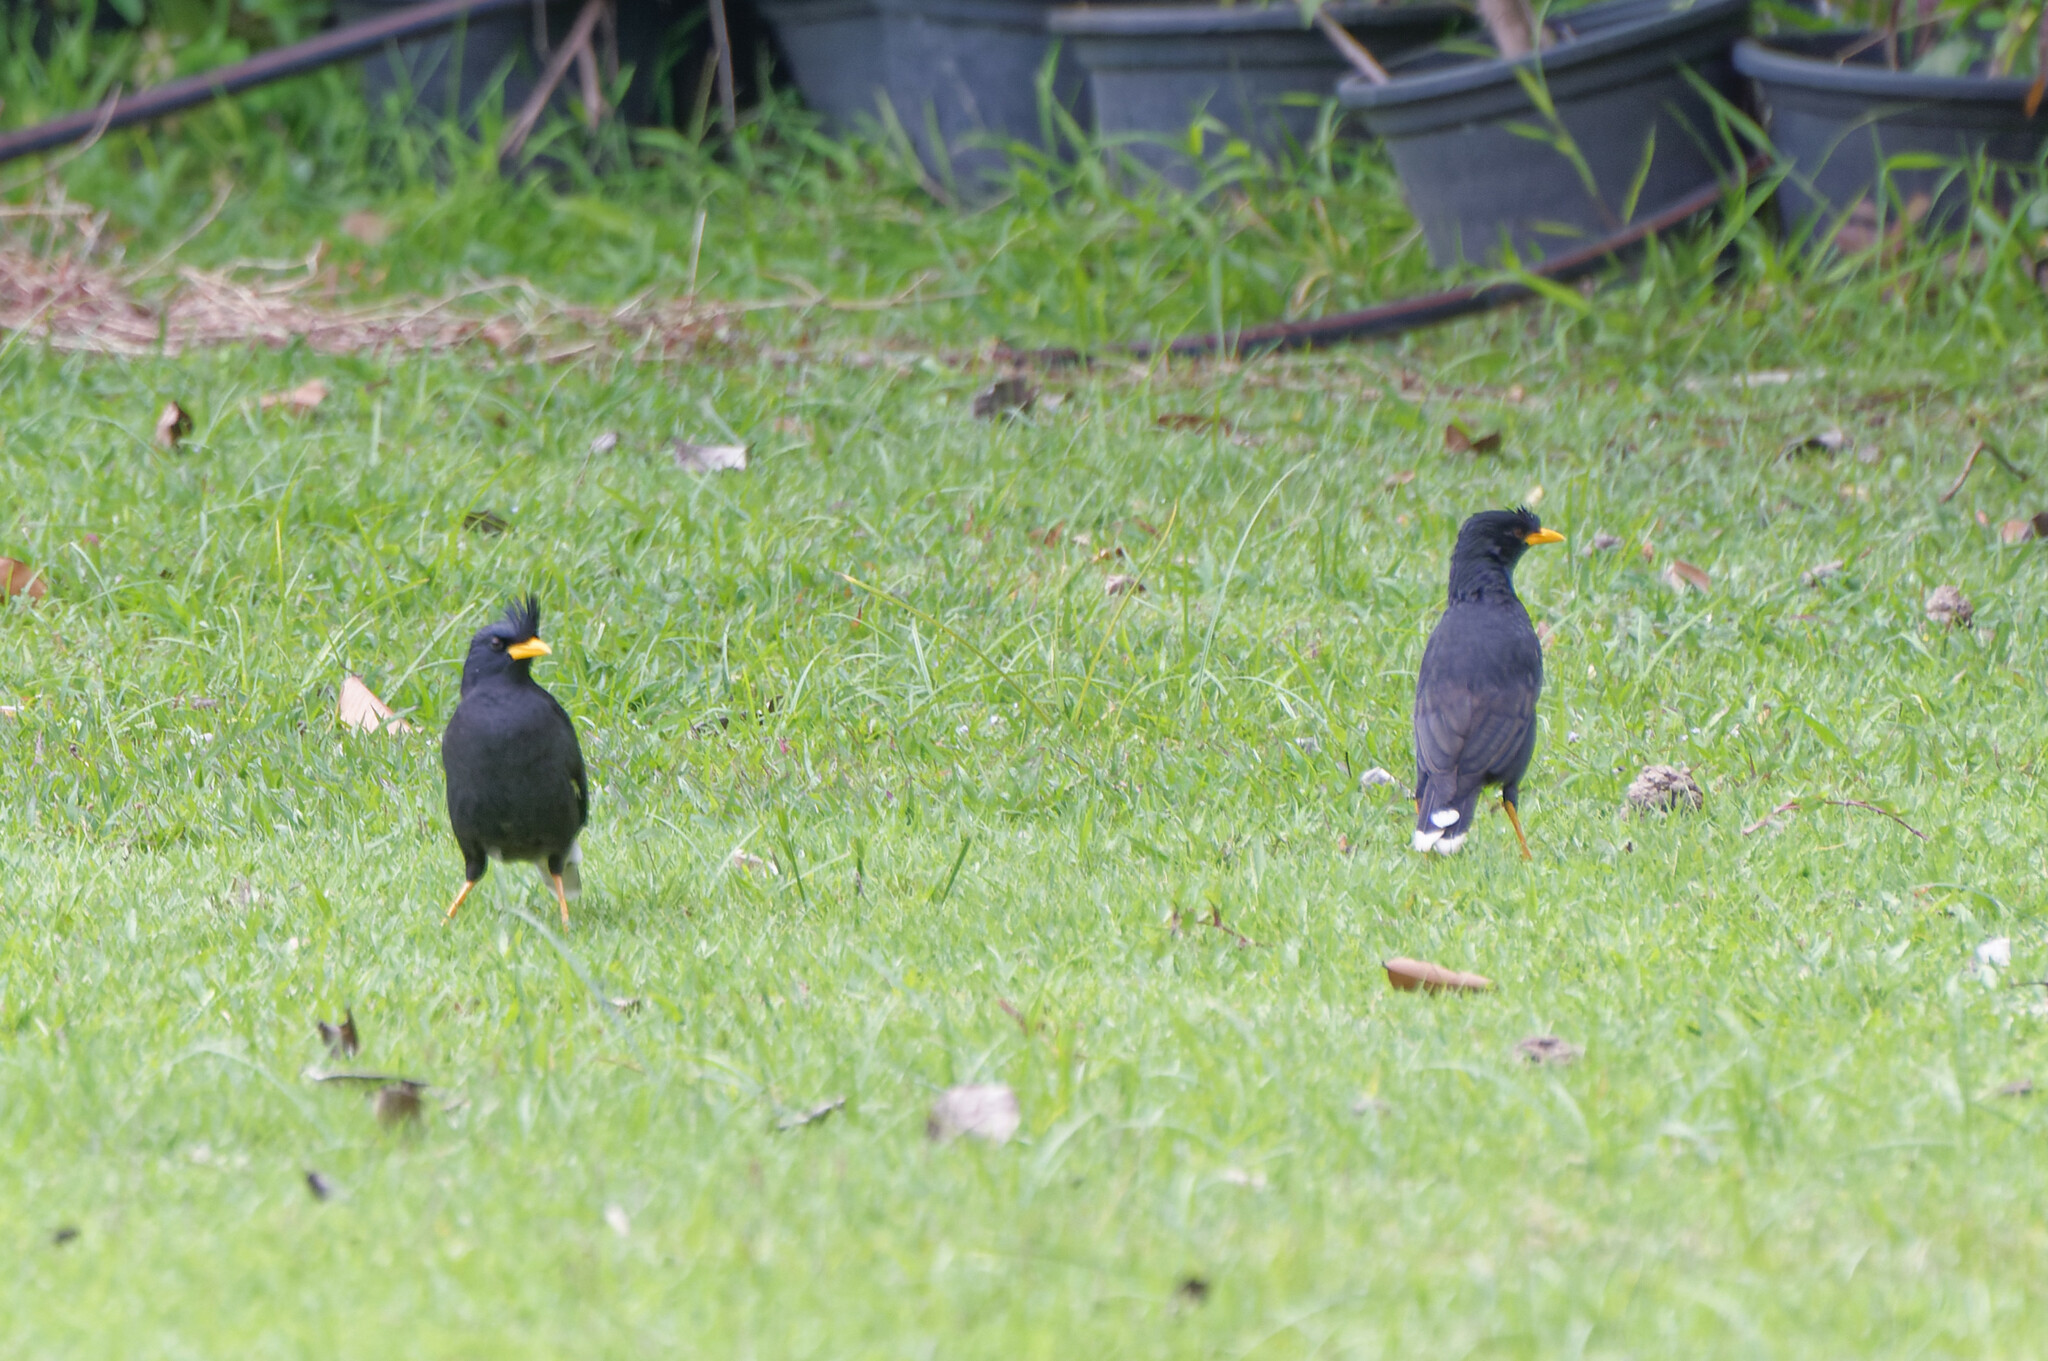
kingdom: Animalia
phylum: Chordata
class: Aves
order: Passeriformes
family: Sturnidae
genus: Acridotheres
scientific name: Acridotheres grandis
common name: Great myna
